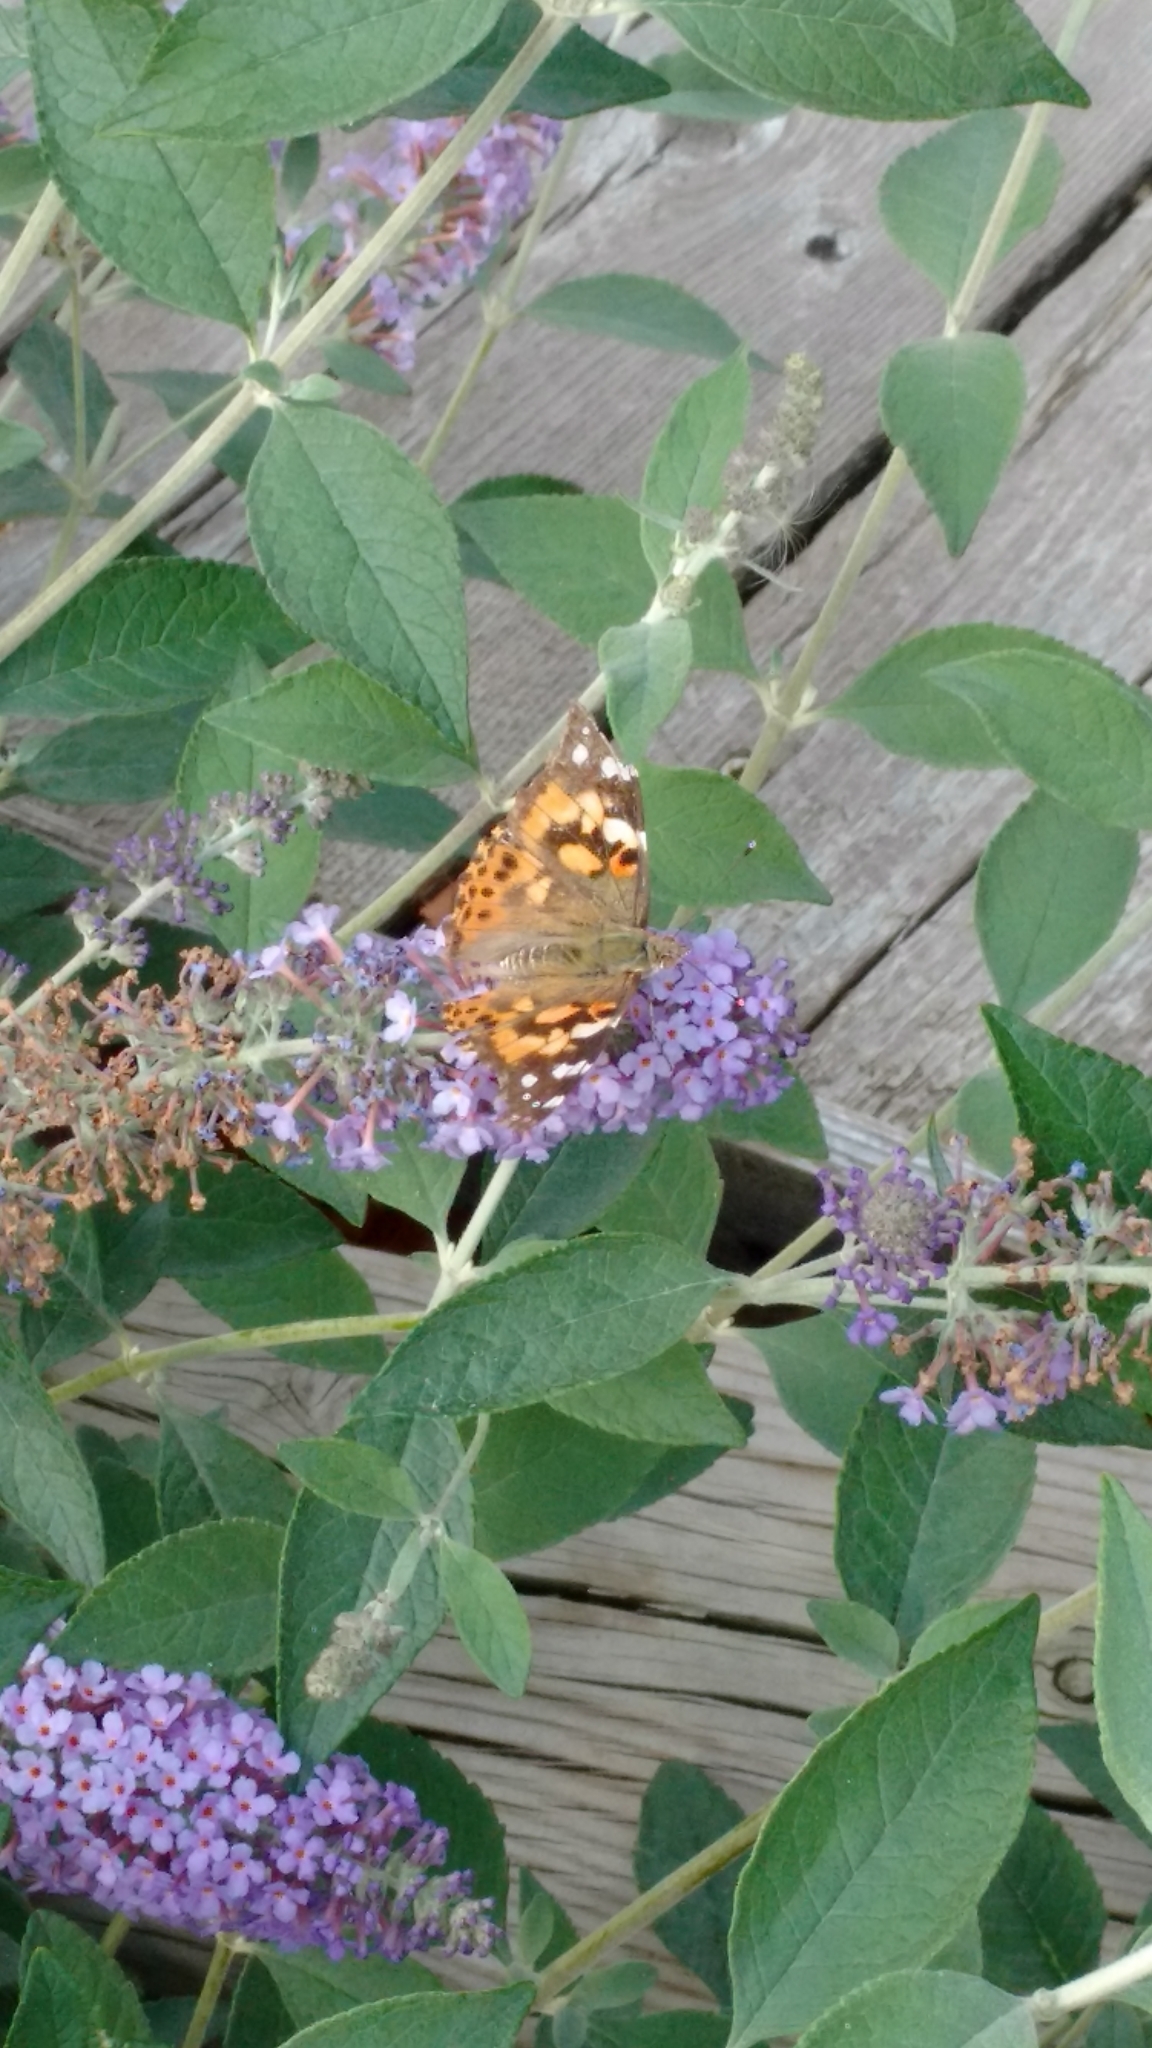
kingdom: Animalia
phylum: Arthropoda
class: Insecta
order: Lepidoptera
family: Nymphalidae
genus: Vanessa
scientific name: Vanessa cardui
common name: Painted lady
